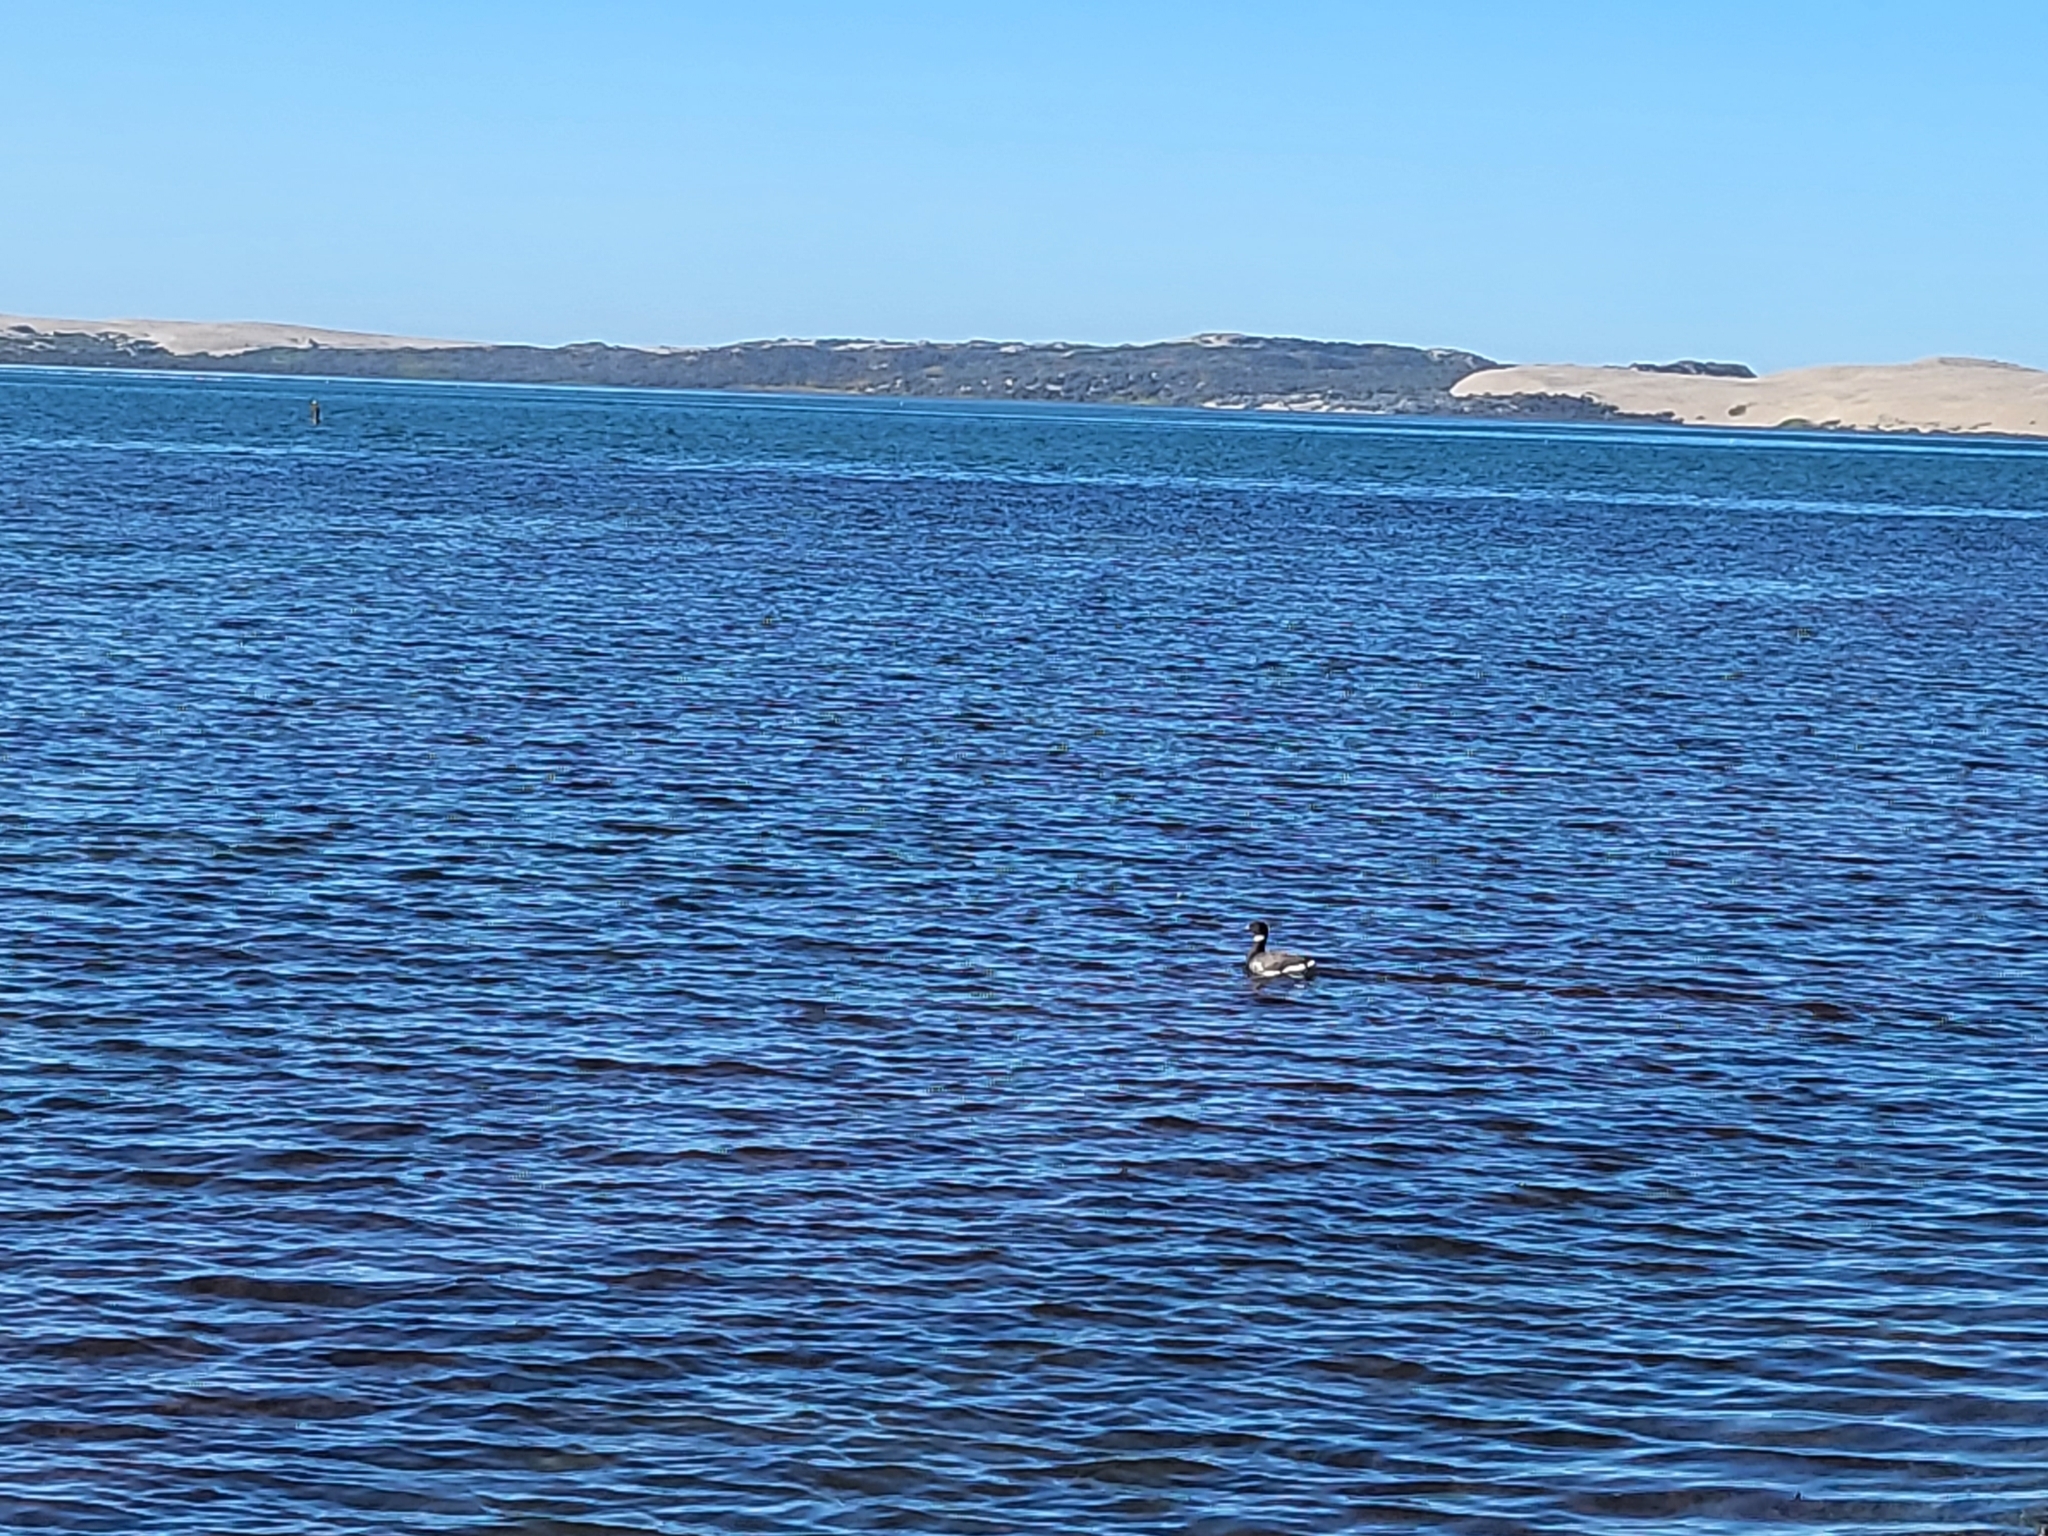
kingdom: Animalia
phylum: Chordata
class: Aves
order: Anseriformes
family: Anatidae
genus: Branta
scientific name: Branta bernicla
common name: Brant goose
